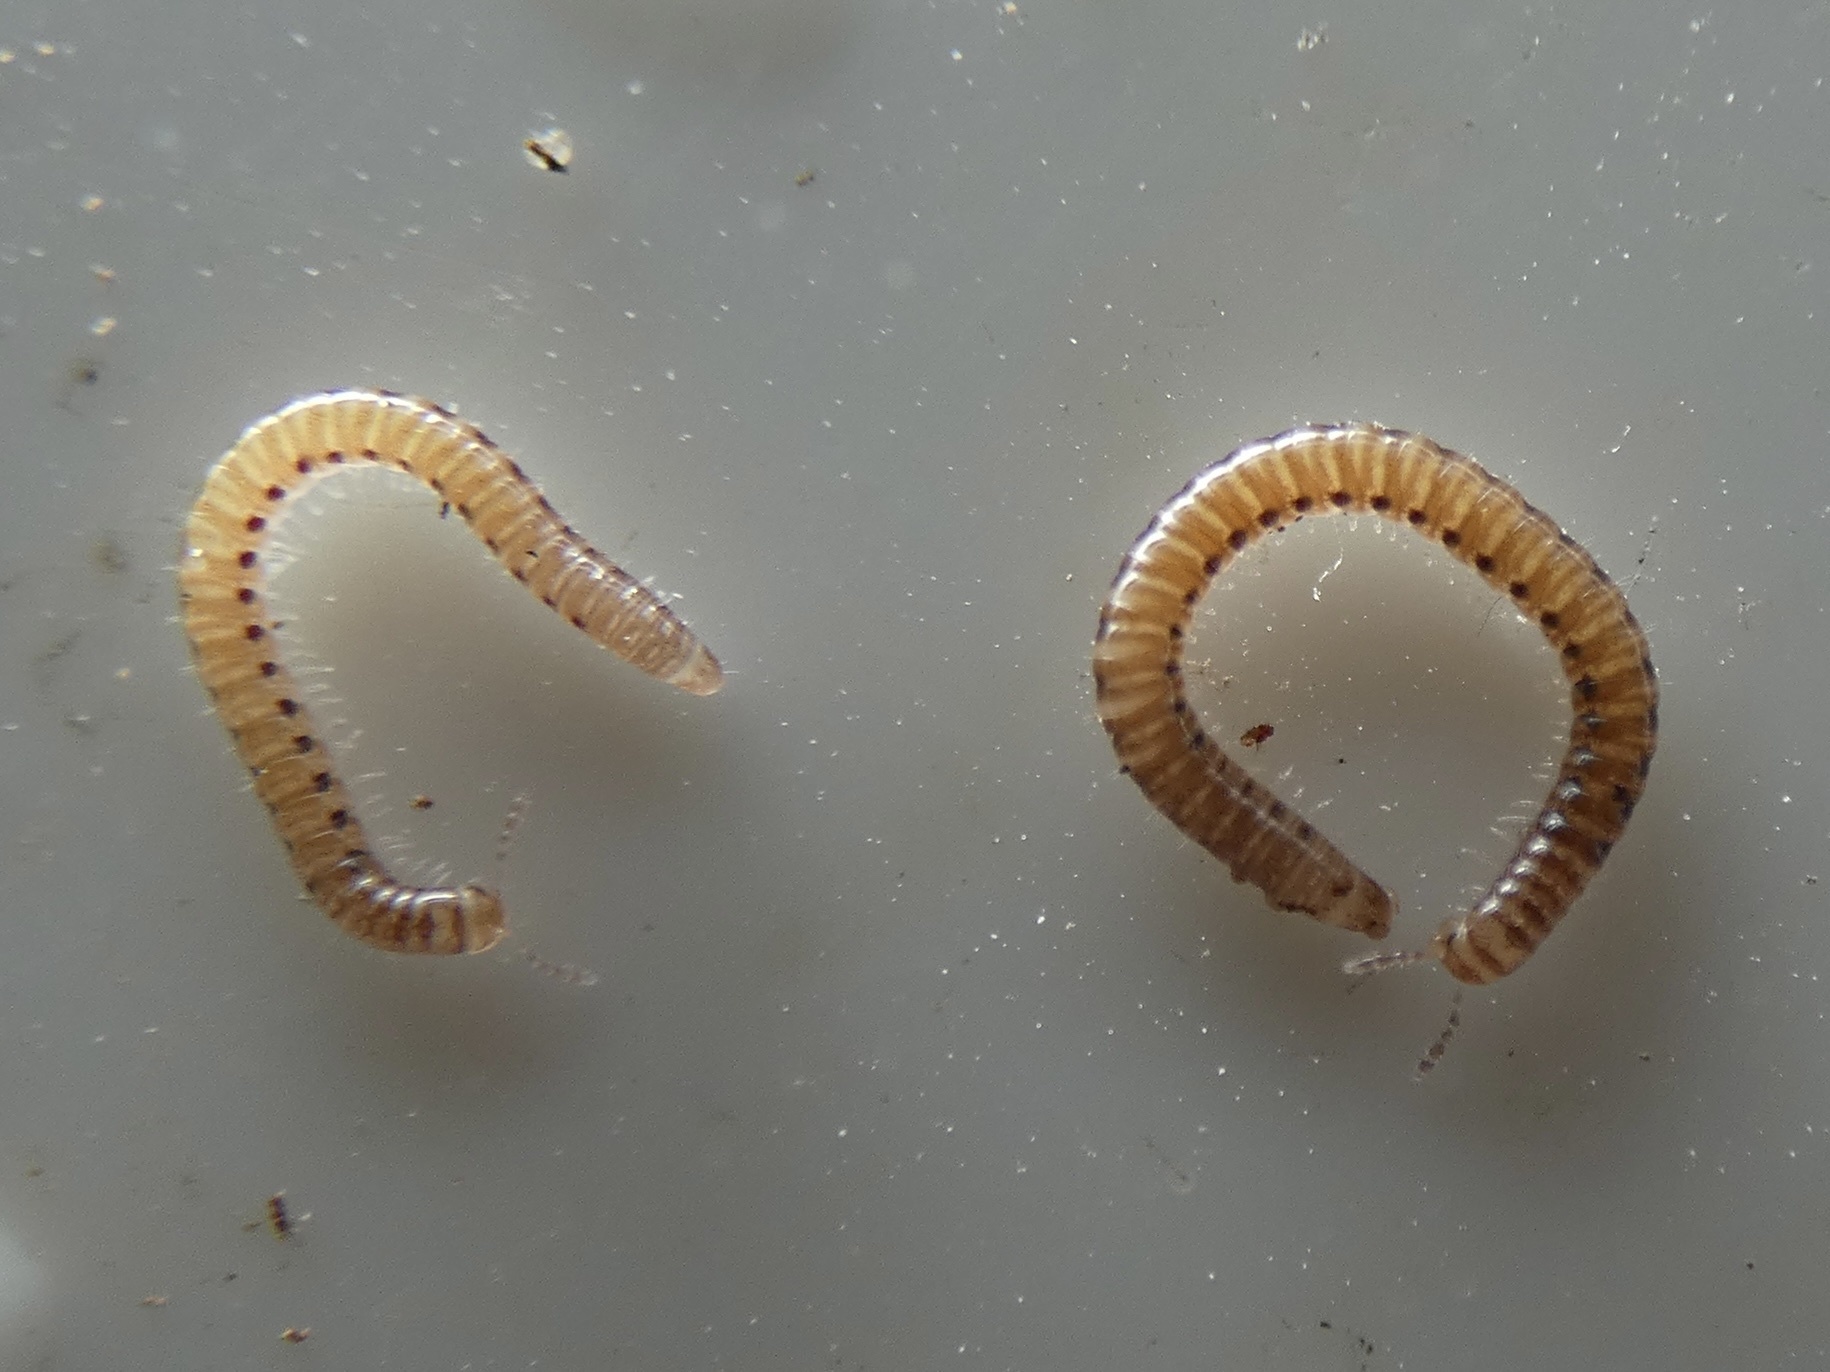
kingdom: Animalia
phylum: Arthropoda
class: Diplopoda
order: Julida
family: Blaniulidae
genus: Proteroiulus
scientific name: Proteroiulus fuscus
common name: Millipede
